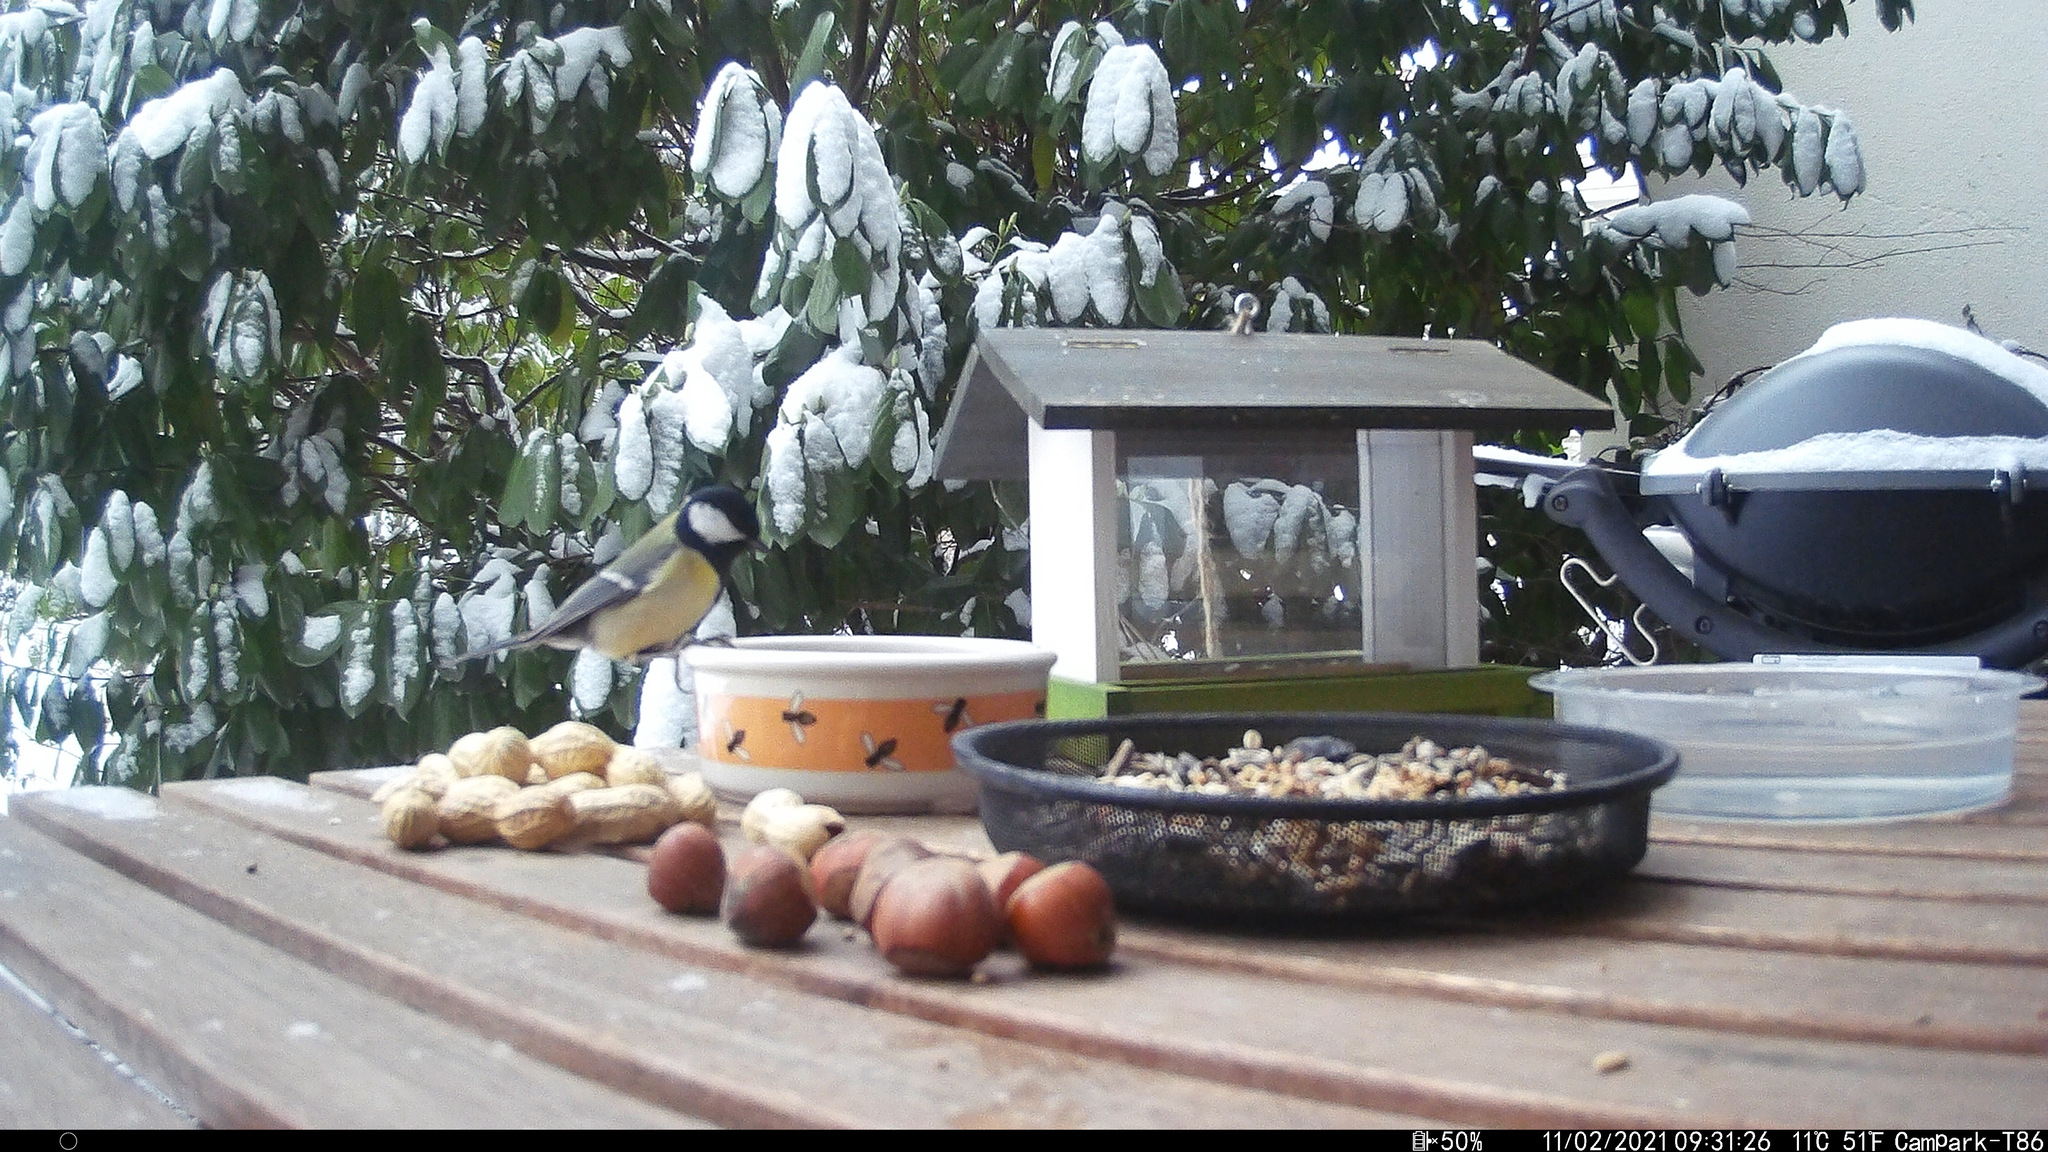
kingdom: Animalia
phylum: Chordata
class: Aves
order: Passeriformes
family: Paridae
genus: Parus
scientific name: Parus major
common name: Great tit
